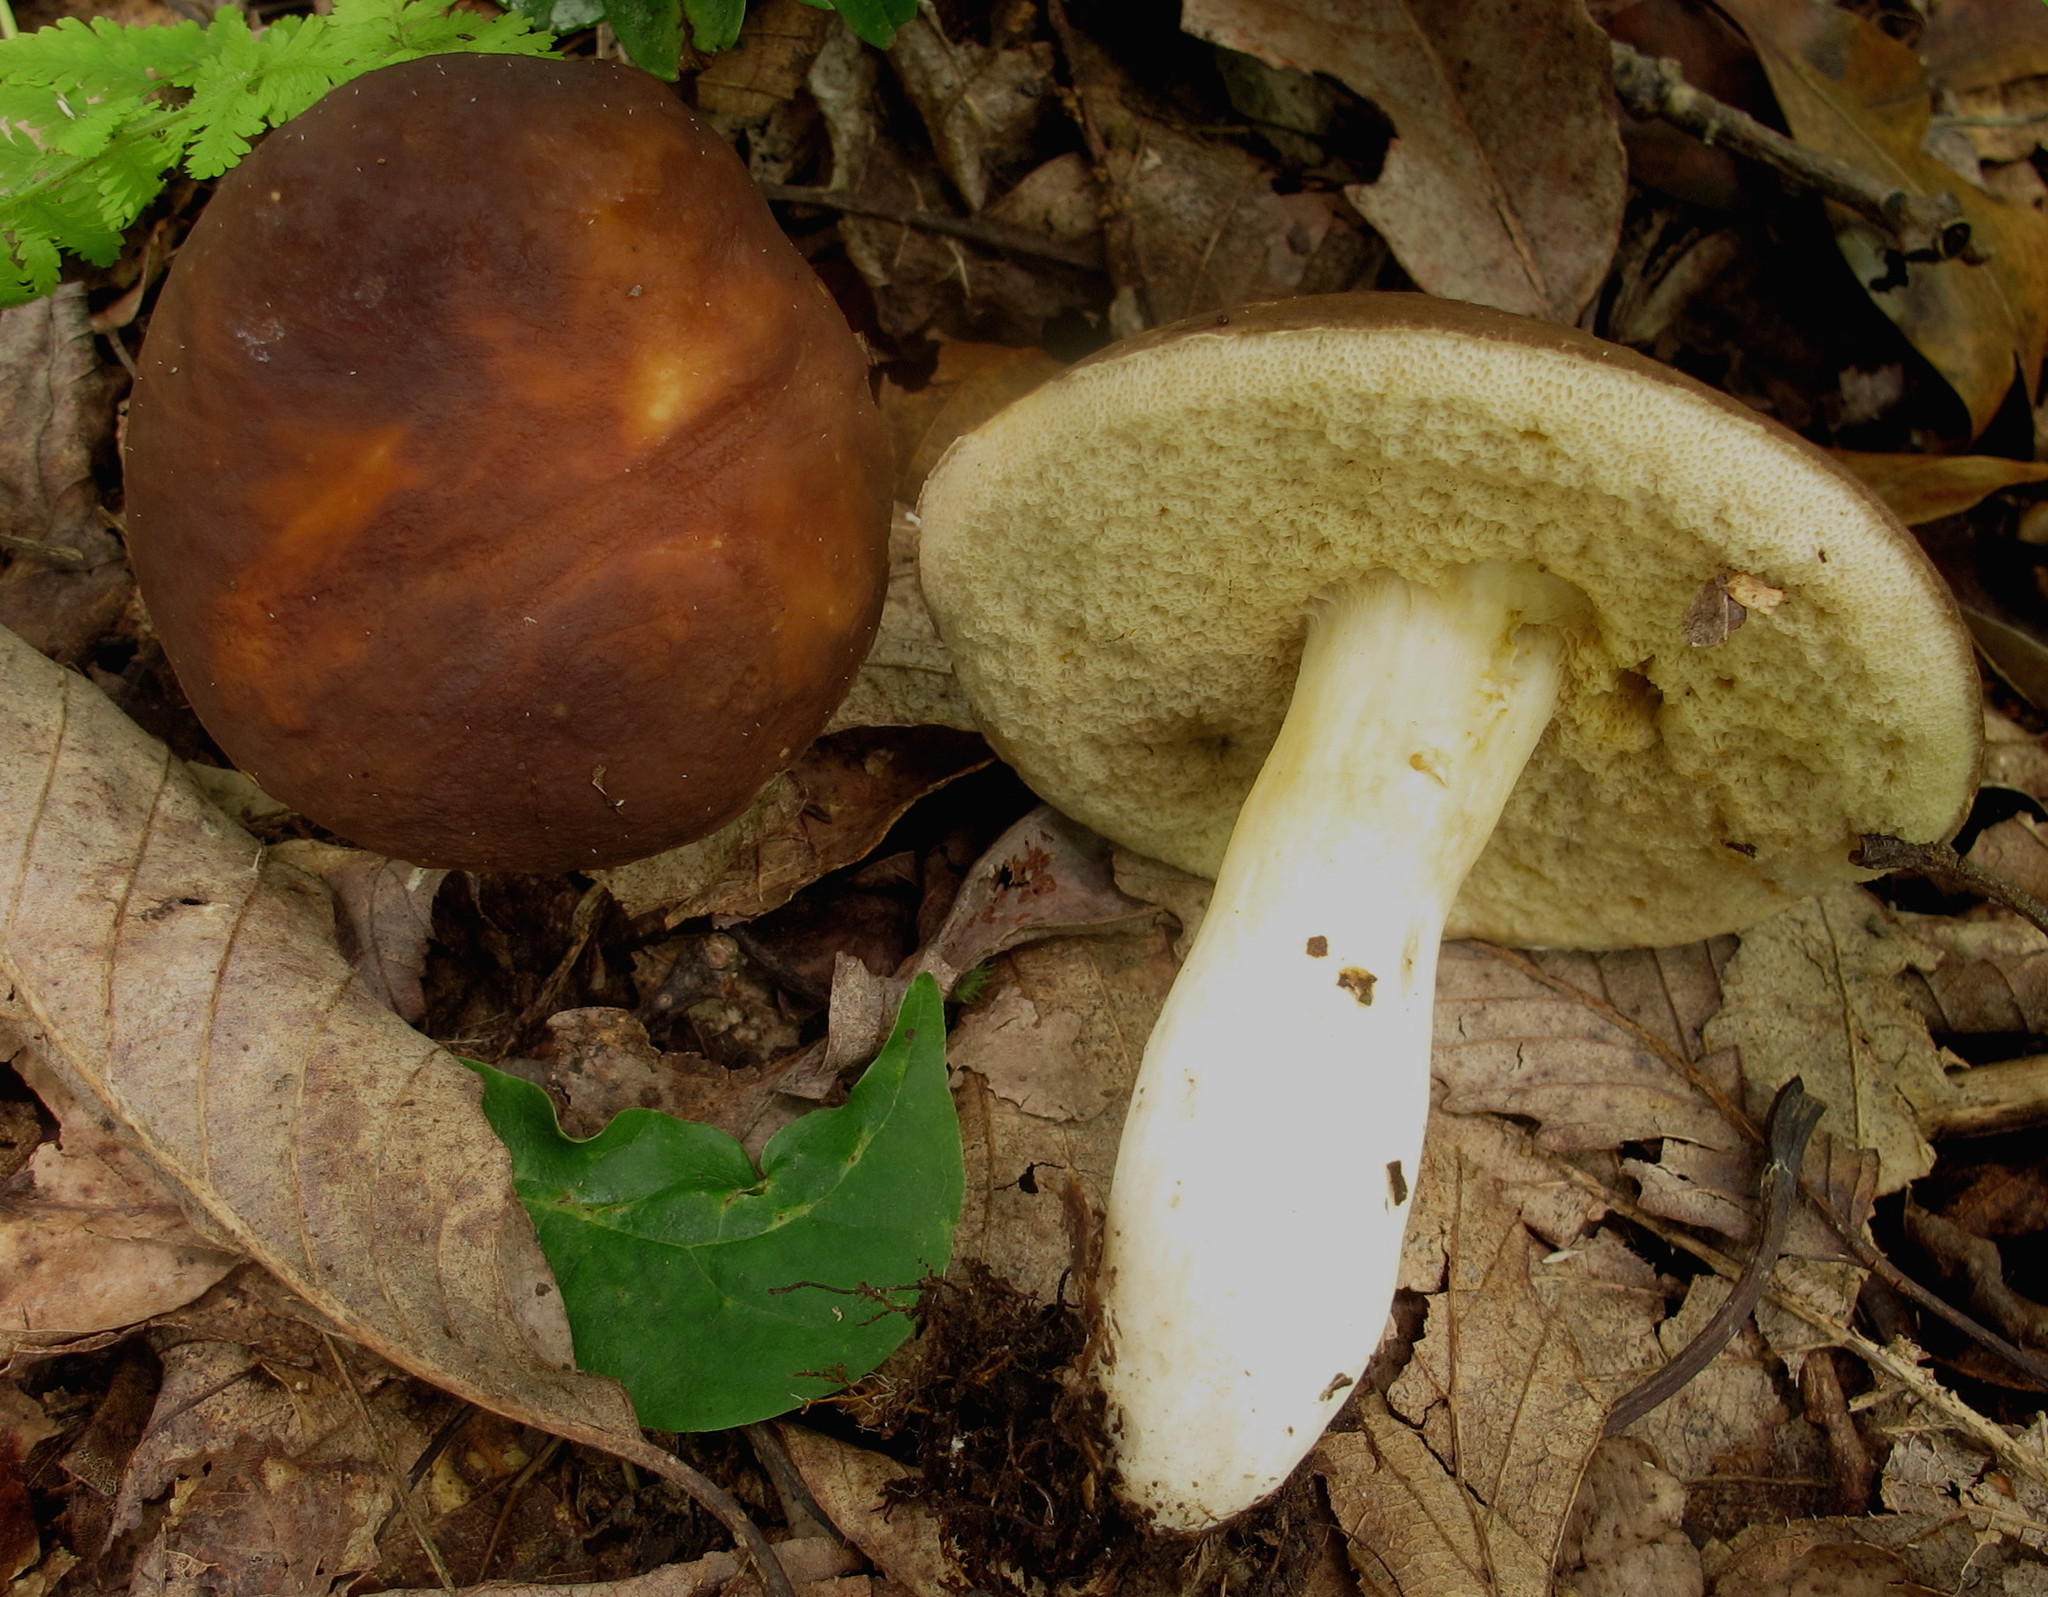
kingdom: Fungi
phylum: Basidiomycota
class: Agaricomycetes
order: Boletales
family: Boletaceae
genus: Xanthoconium
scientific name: Xanthoconium affine
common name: Spotted bolete
